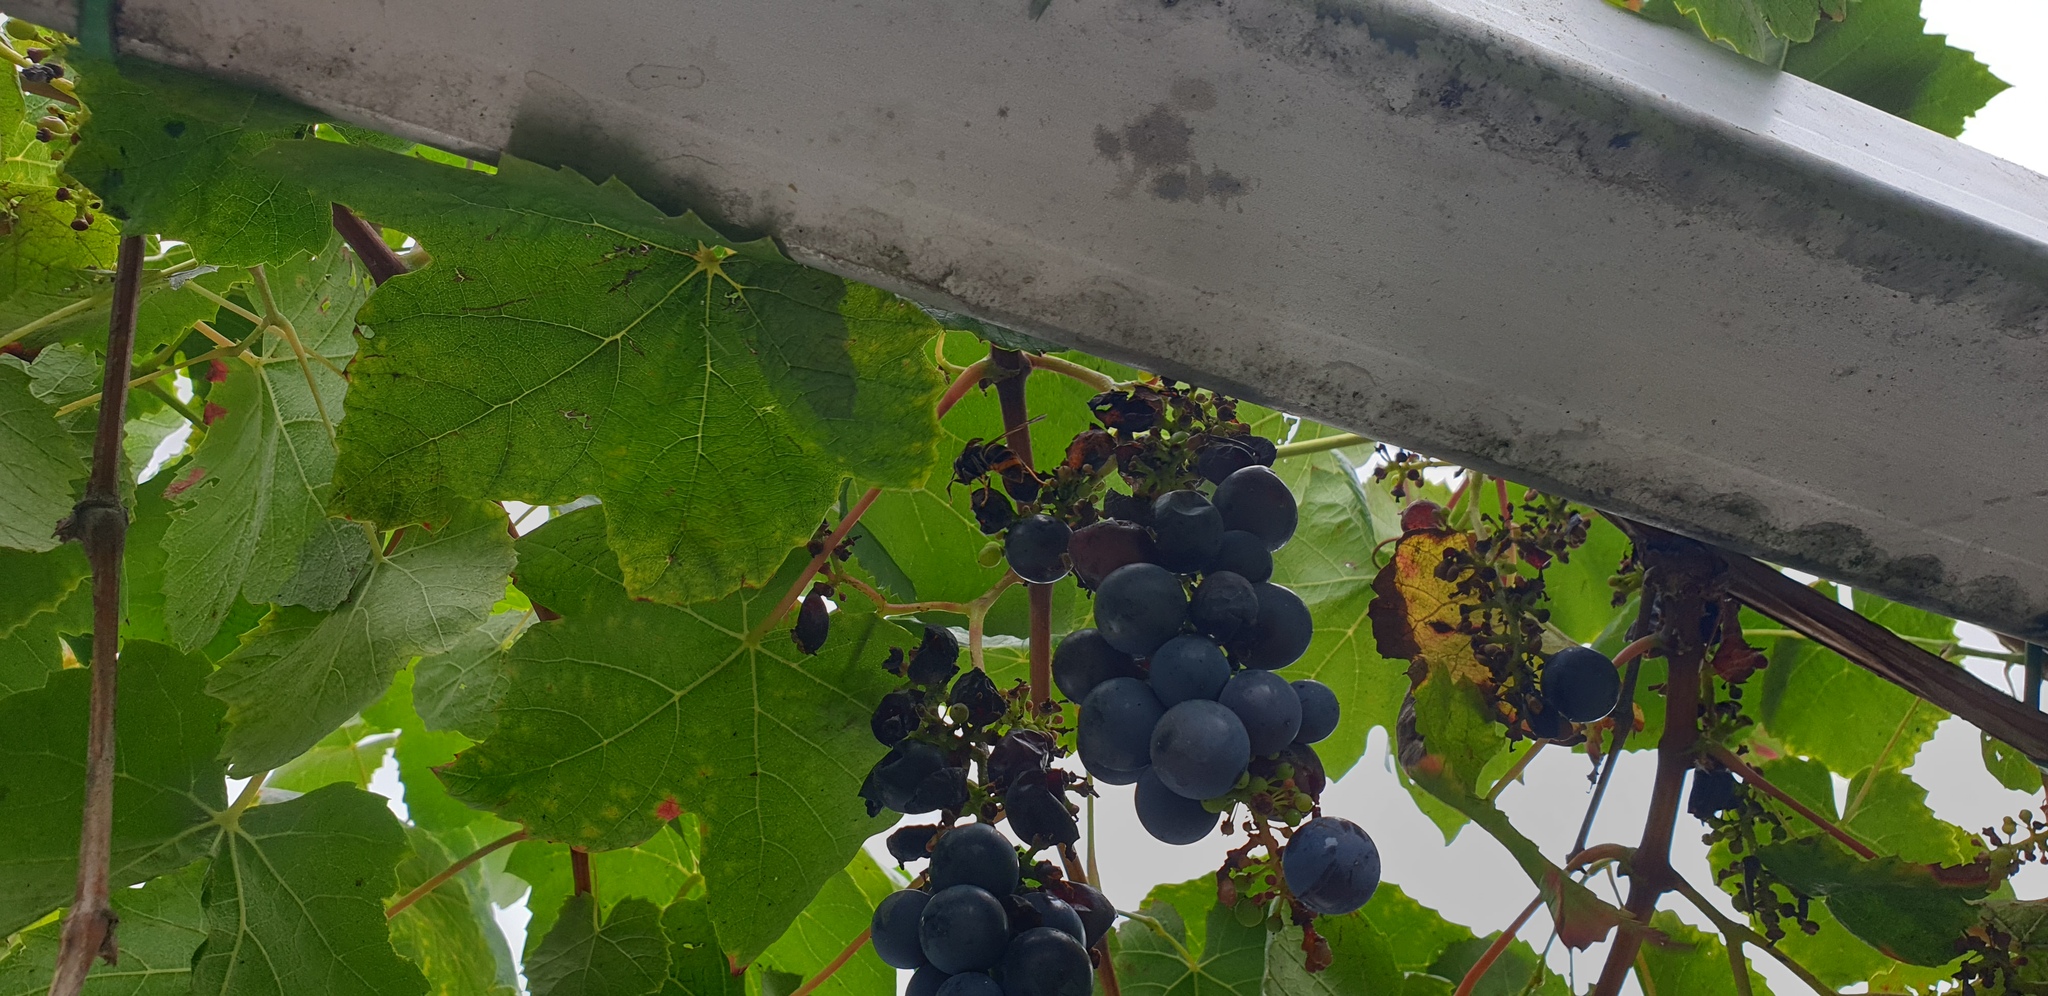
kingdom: Animalia
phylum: Arthropoda
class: Insecta
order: Hymenoptera
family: Vespidae
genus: Vespa
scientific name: Vespa velutina
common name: Asian hornet
